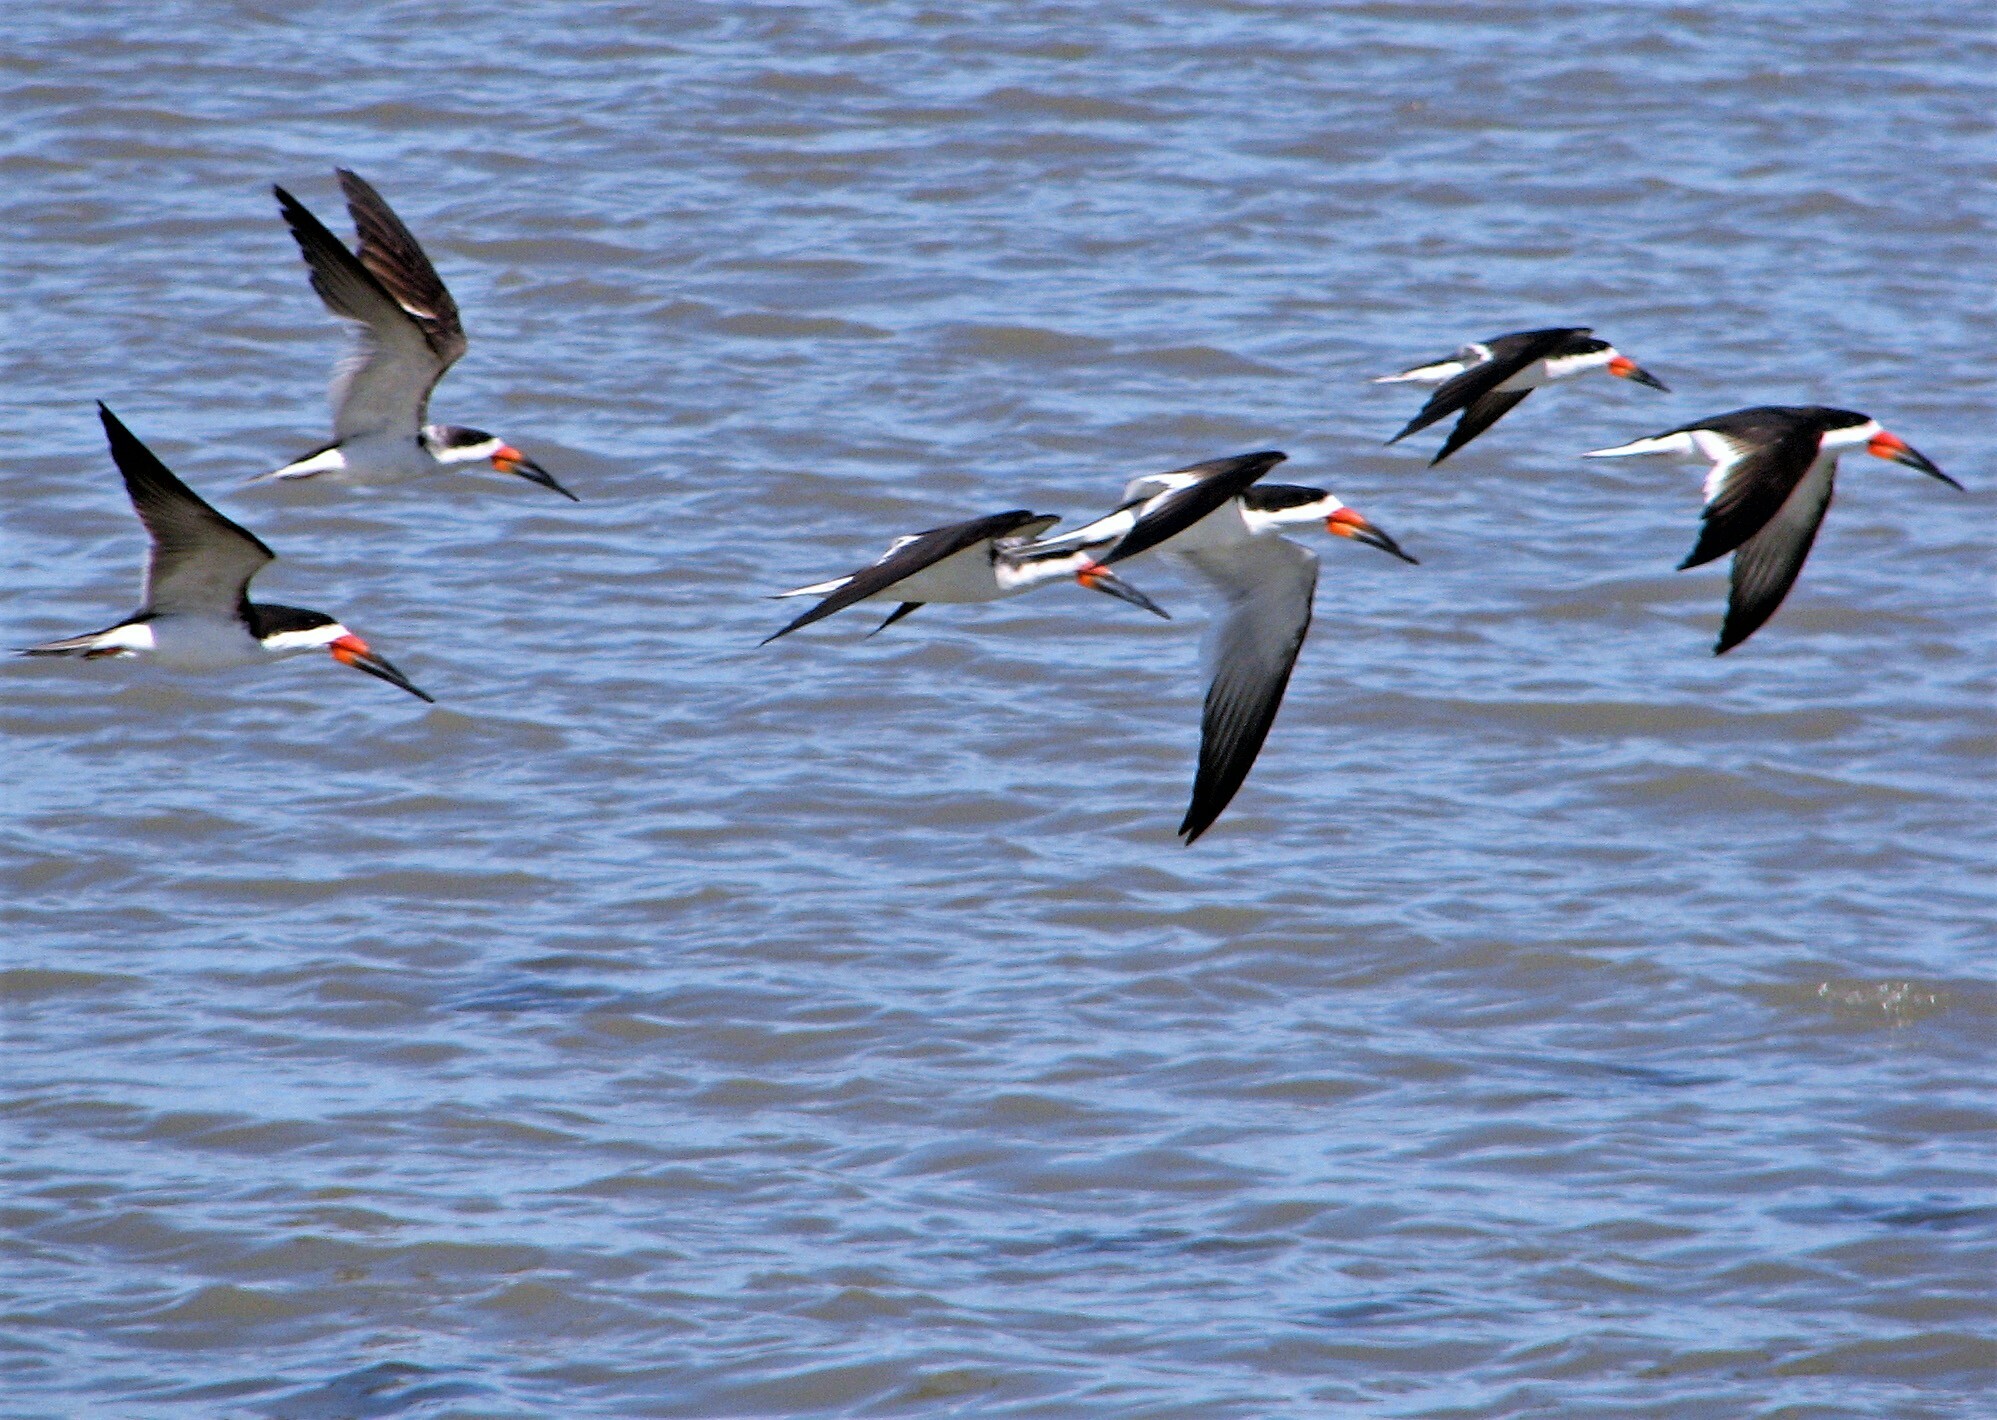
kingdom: Animalia
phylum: Chordata
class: Aves
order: Charadriiformes
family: Laridae
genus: Rynchops
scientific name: Rynchops niger
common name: Black skimmer
